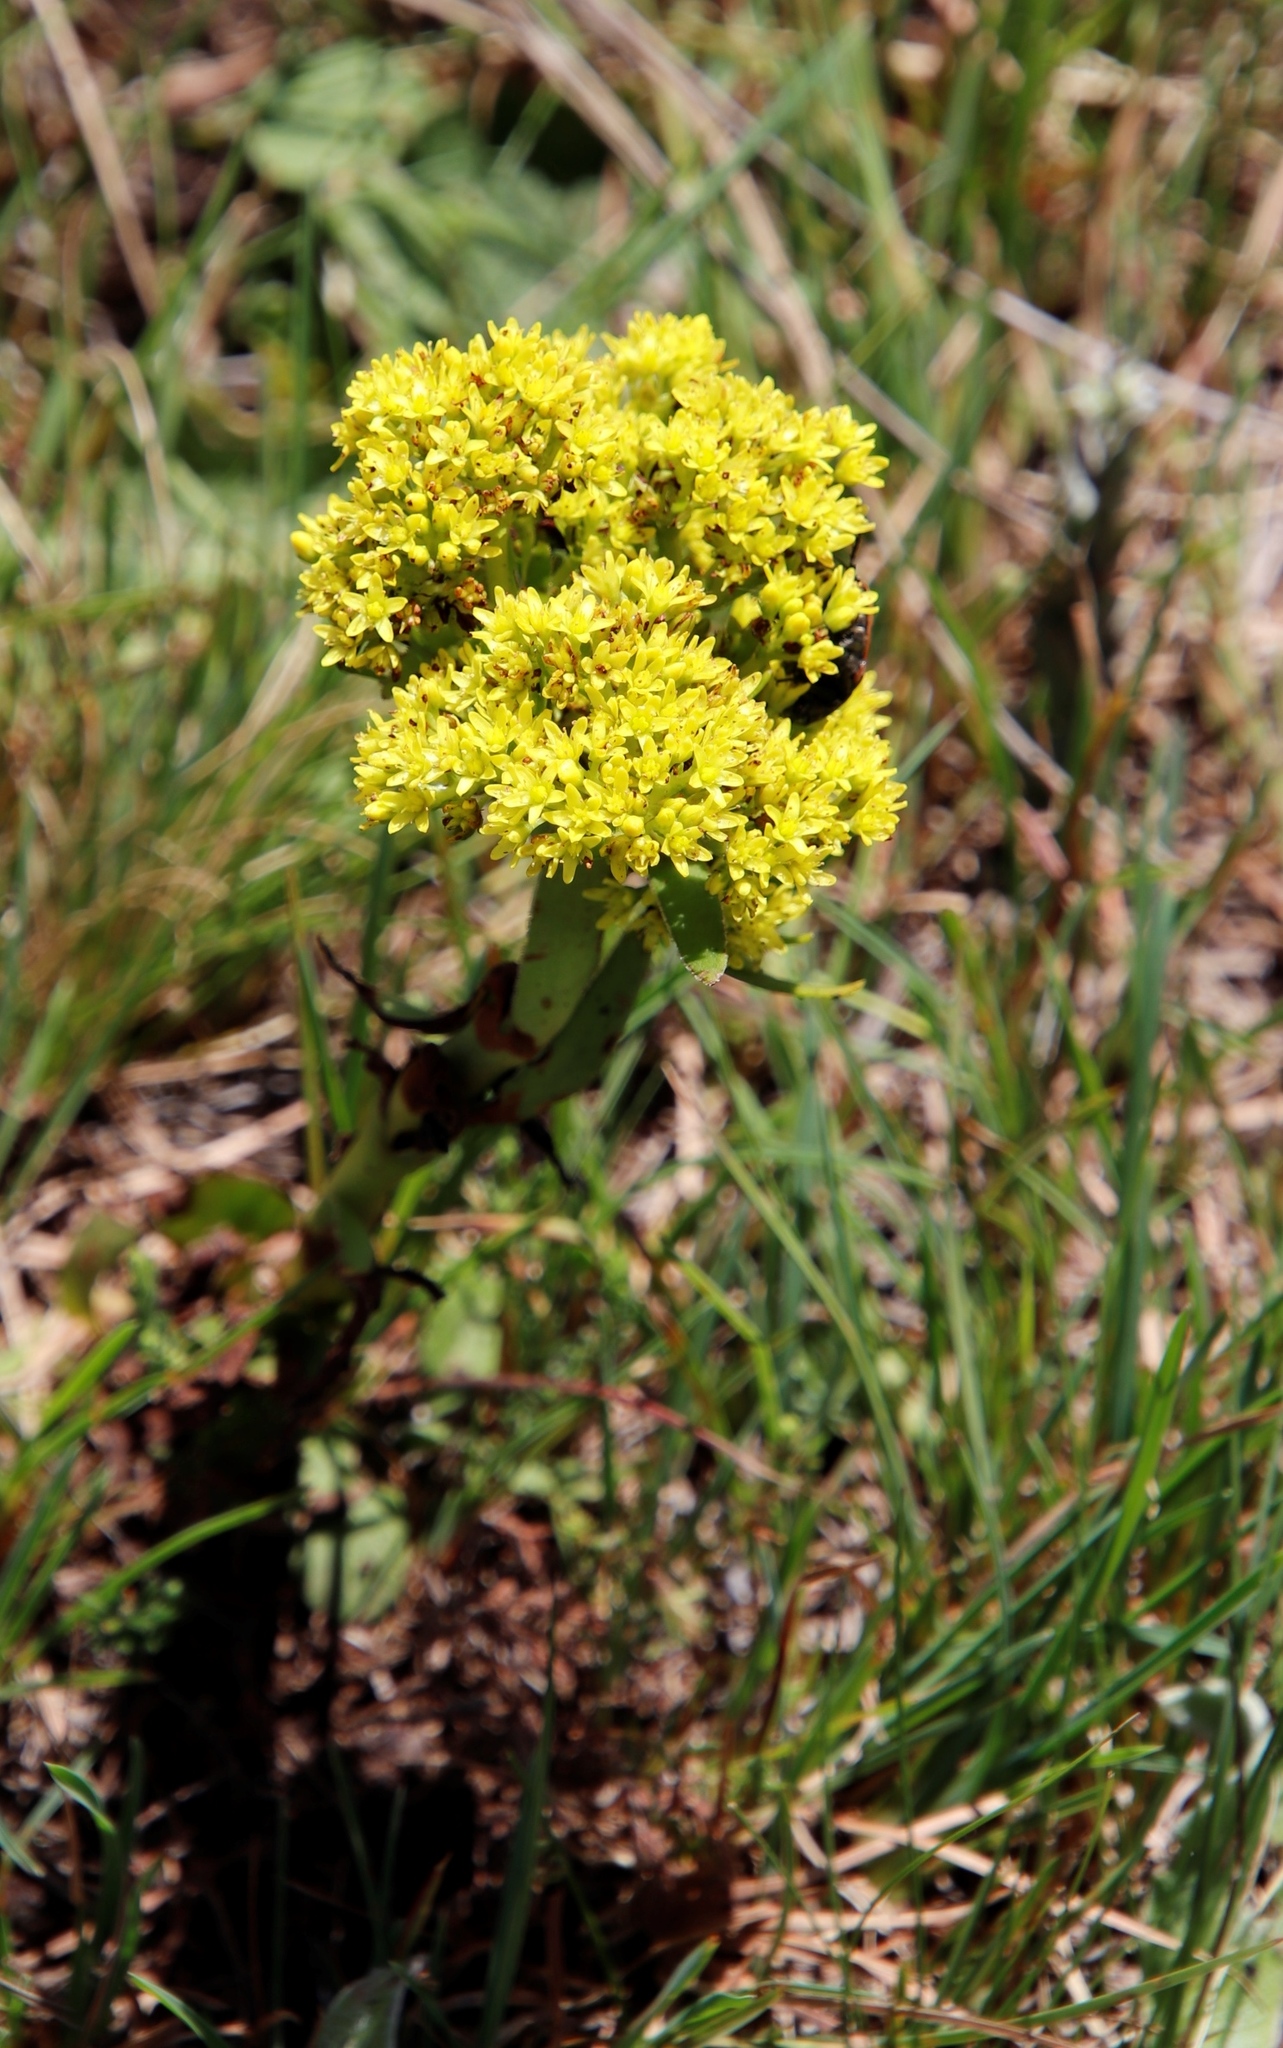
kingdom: Plantae
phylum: Tracheophyta
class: Magnoliopsida
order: Saxifragales
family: Crassulaceae
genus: Crassula
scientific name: Crassula vaginata
